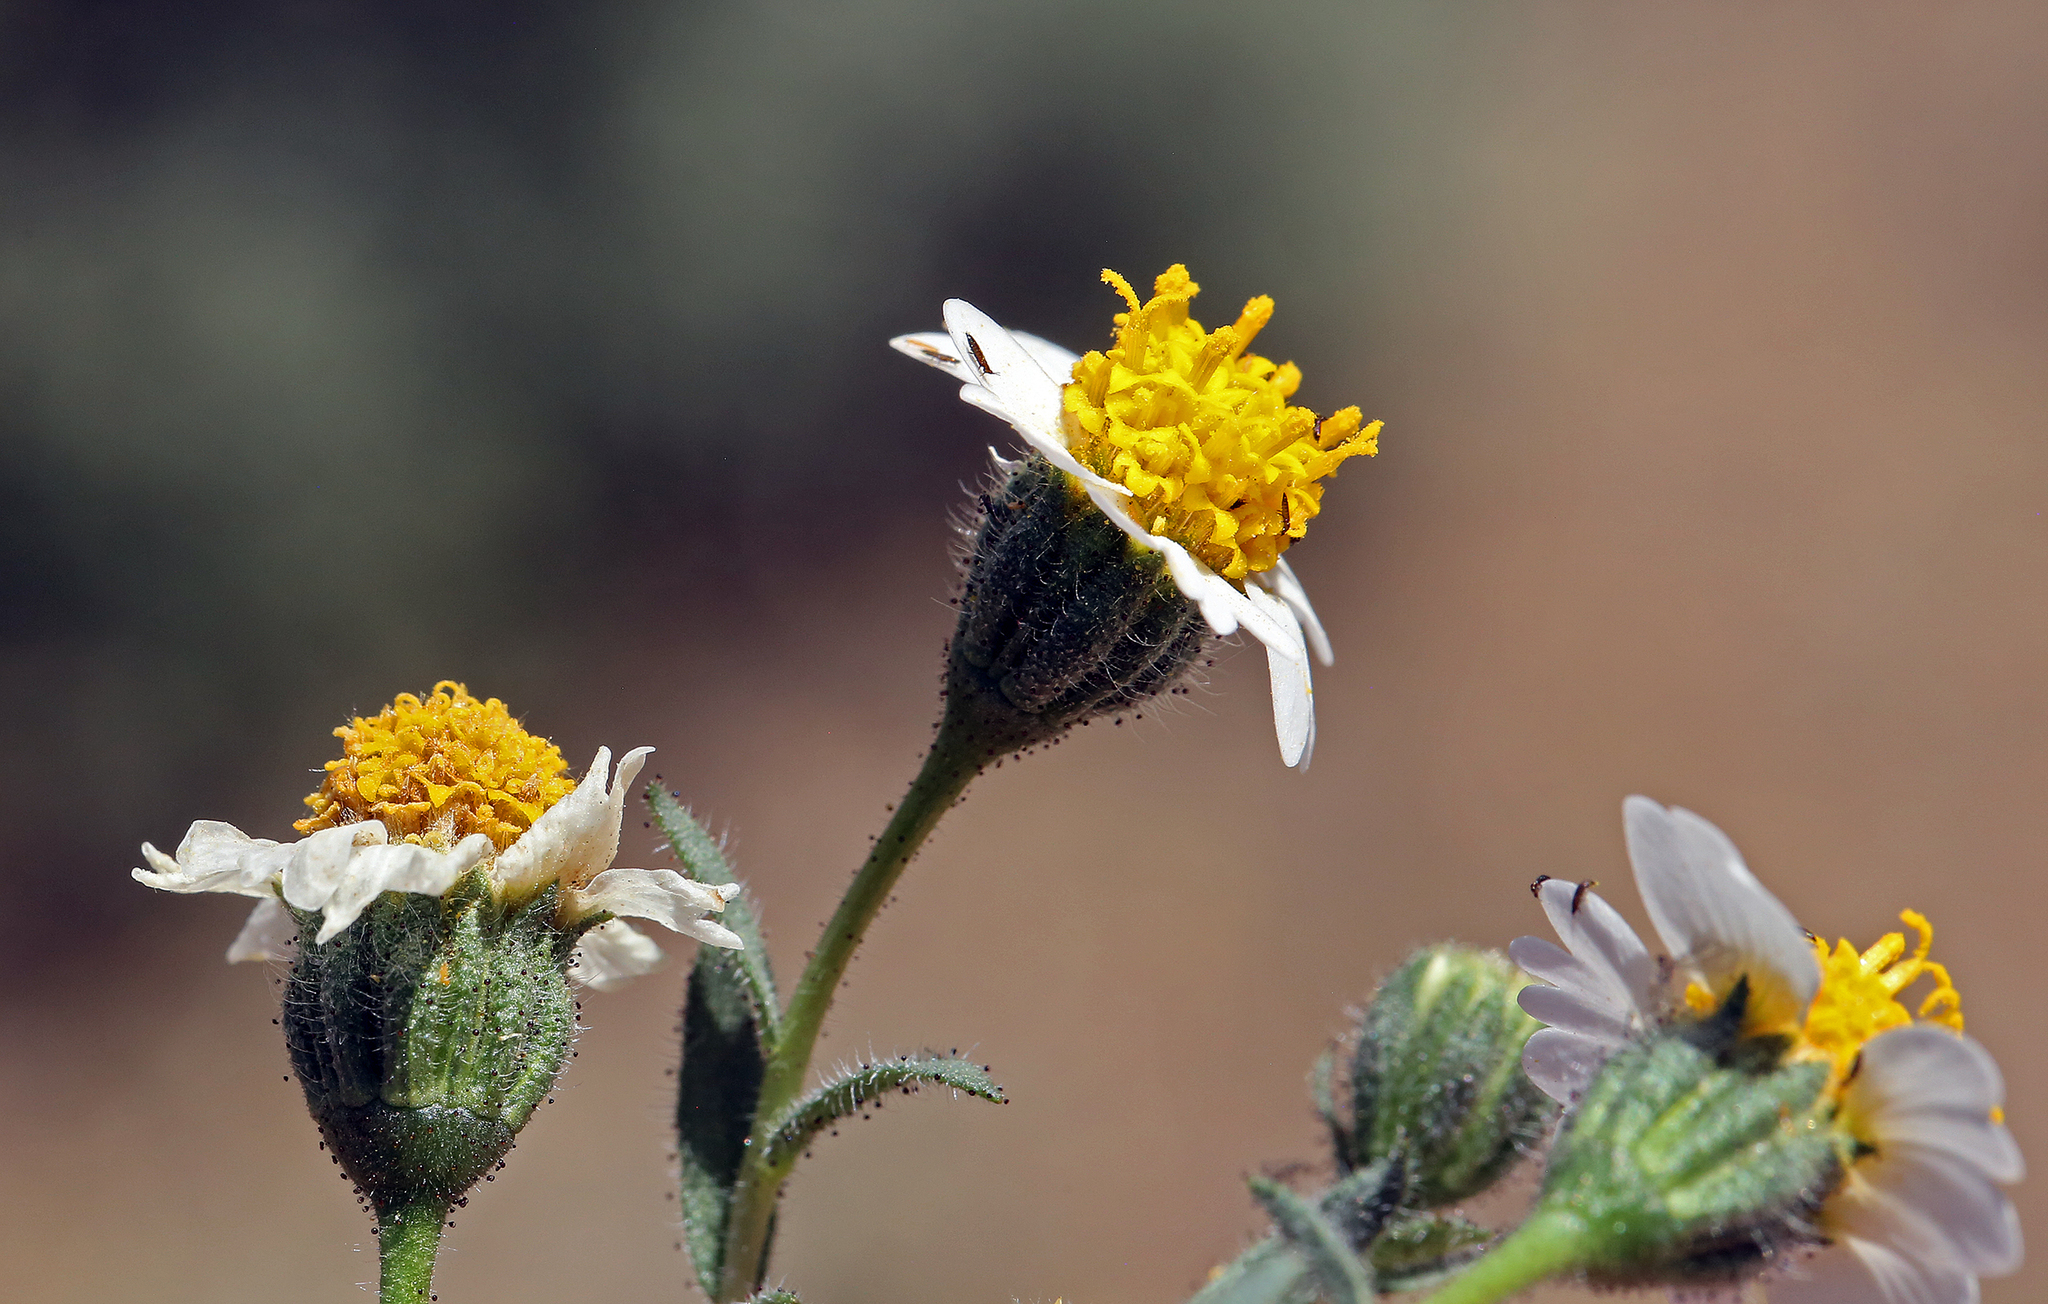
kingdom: Plantae
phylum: Tracheophyta
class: Magnoliopsida
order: Asterales
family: Asteraceae
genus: Layia
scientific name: Layia glandulosa
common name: White layia
